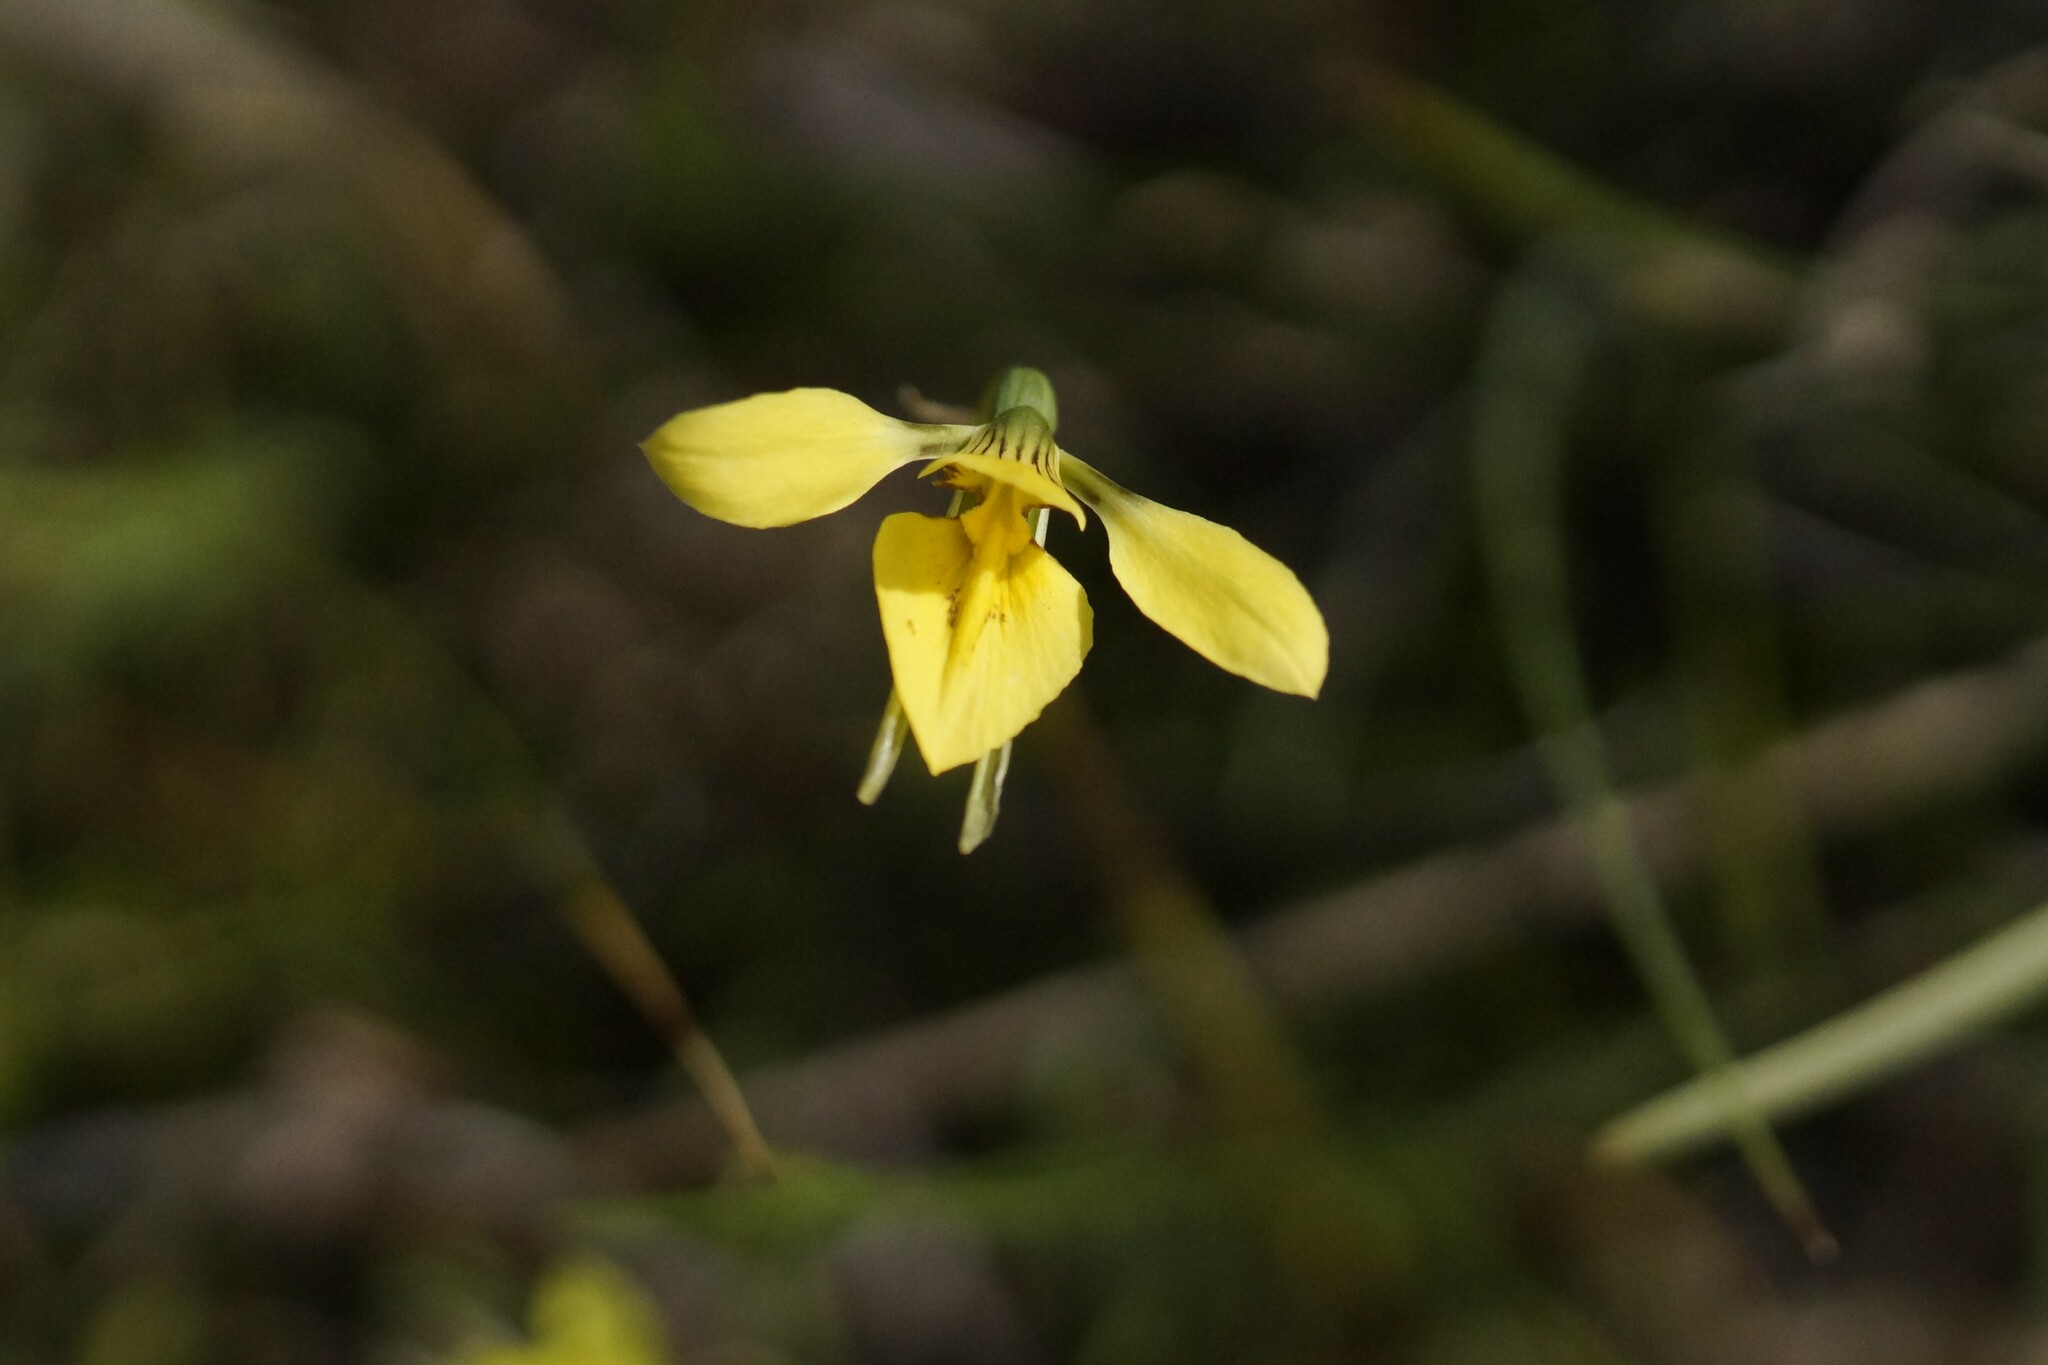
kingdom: Plantae
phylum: Tracheophyta
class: Liliopsida
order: Asparagales
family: Orchidaceae
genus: Diuris
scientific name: Diuris chryseopsis
